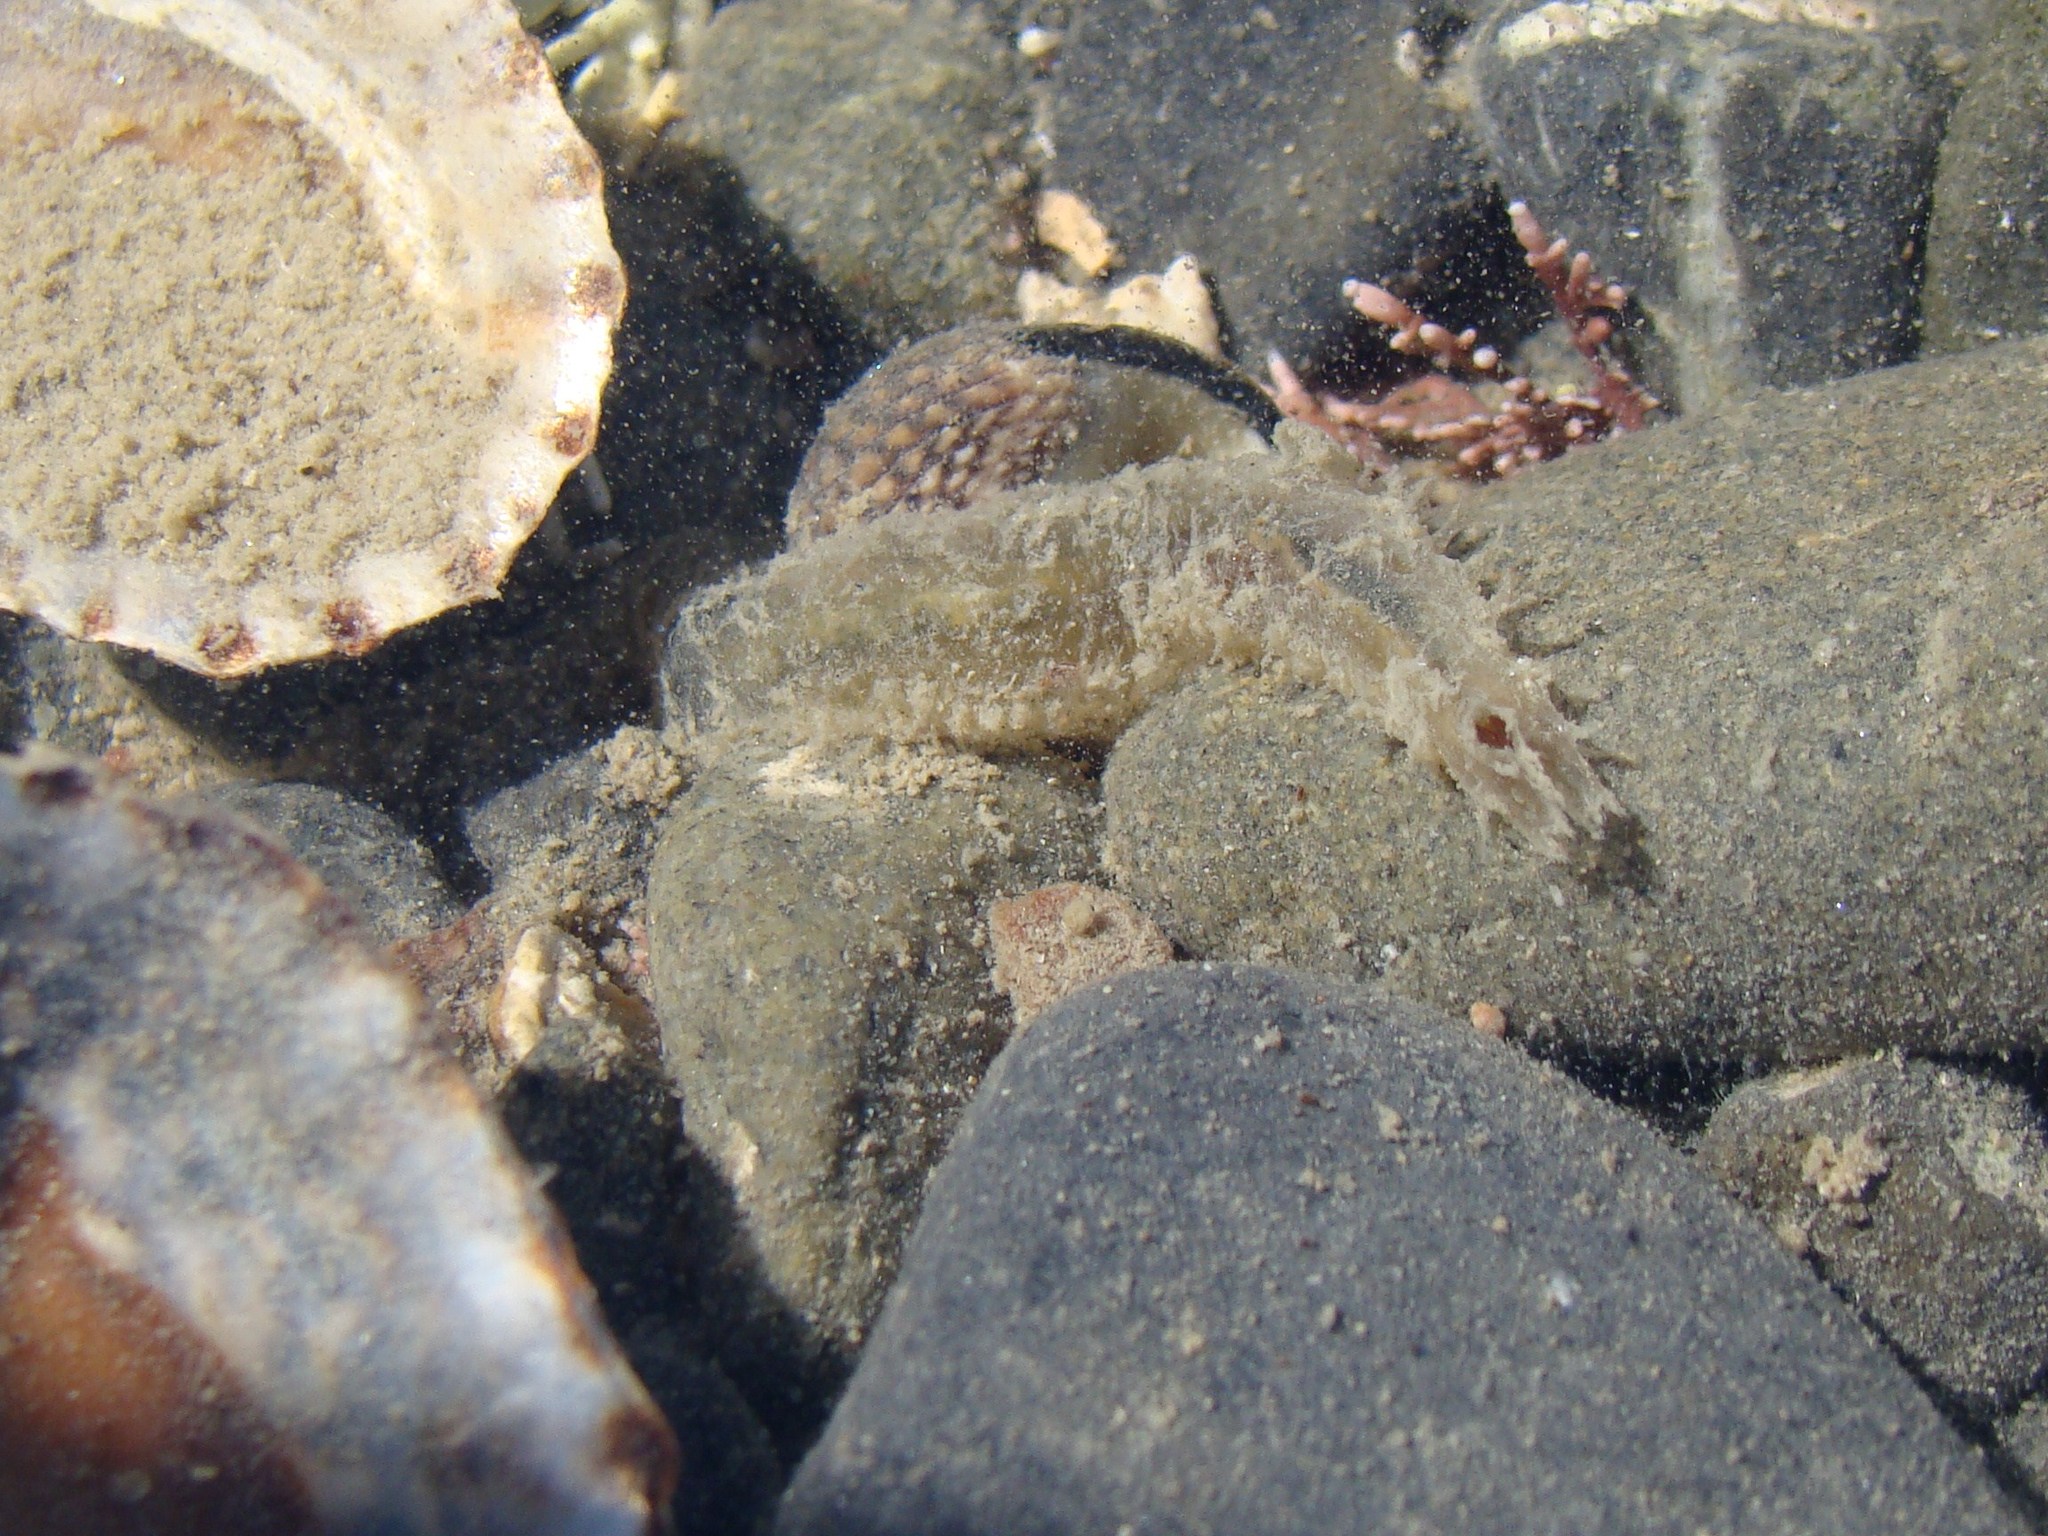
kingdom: Animalia
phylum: Annelida
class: Polychaeta
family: Flabelligeridae
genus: Flabelligera
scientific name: Flabelligera bicolor
